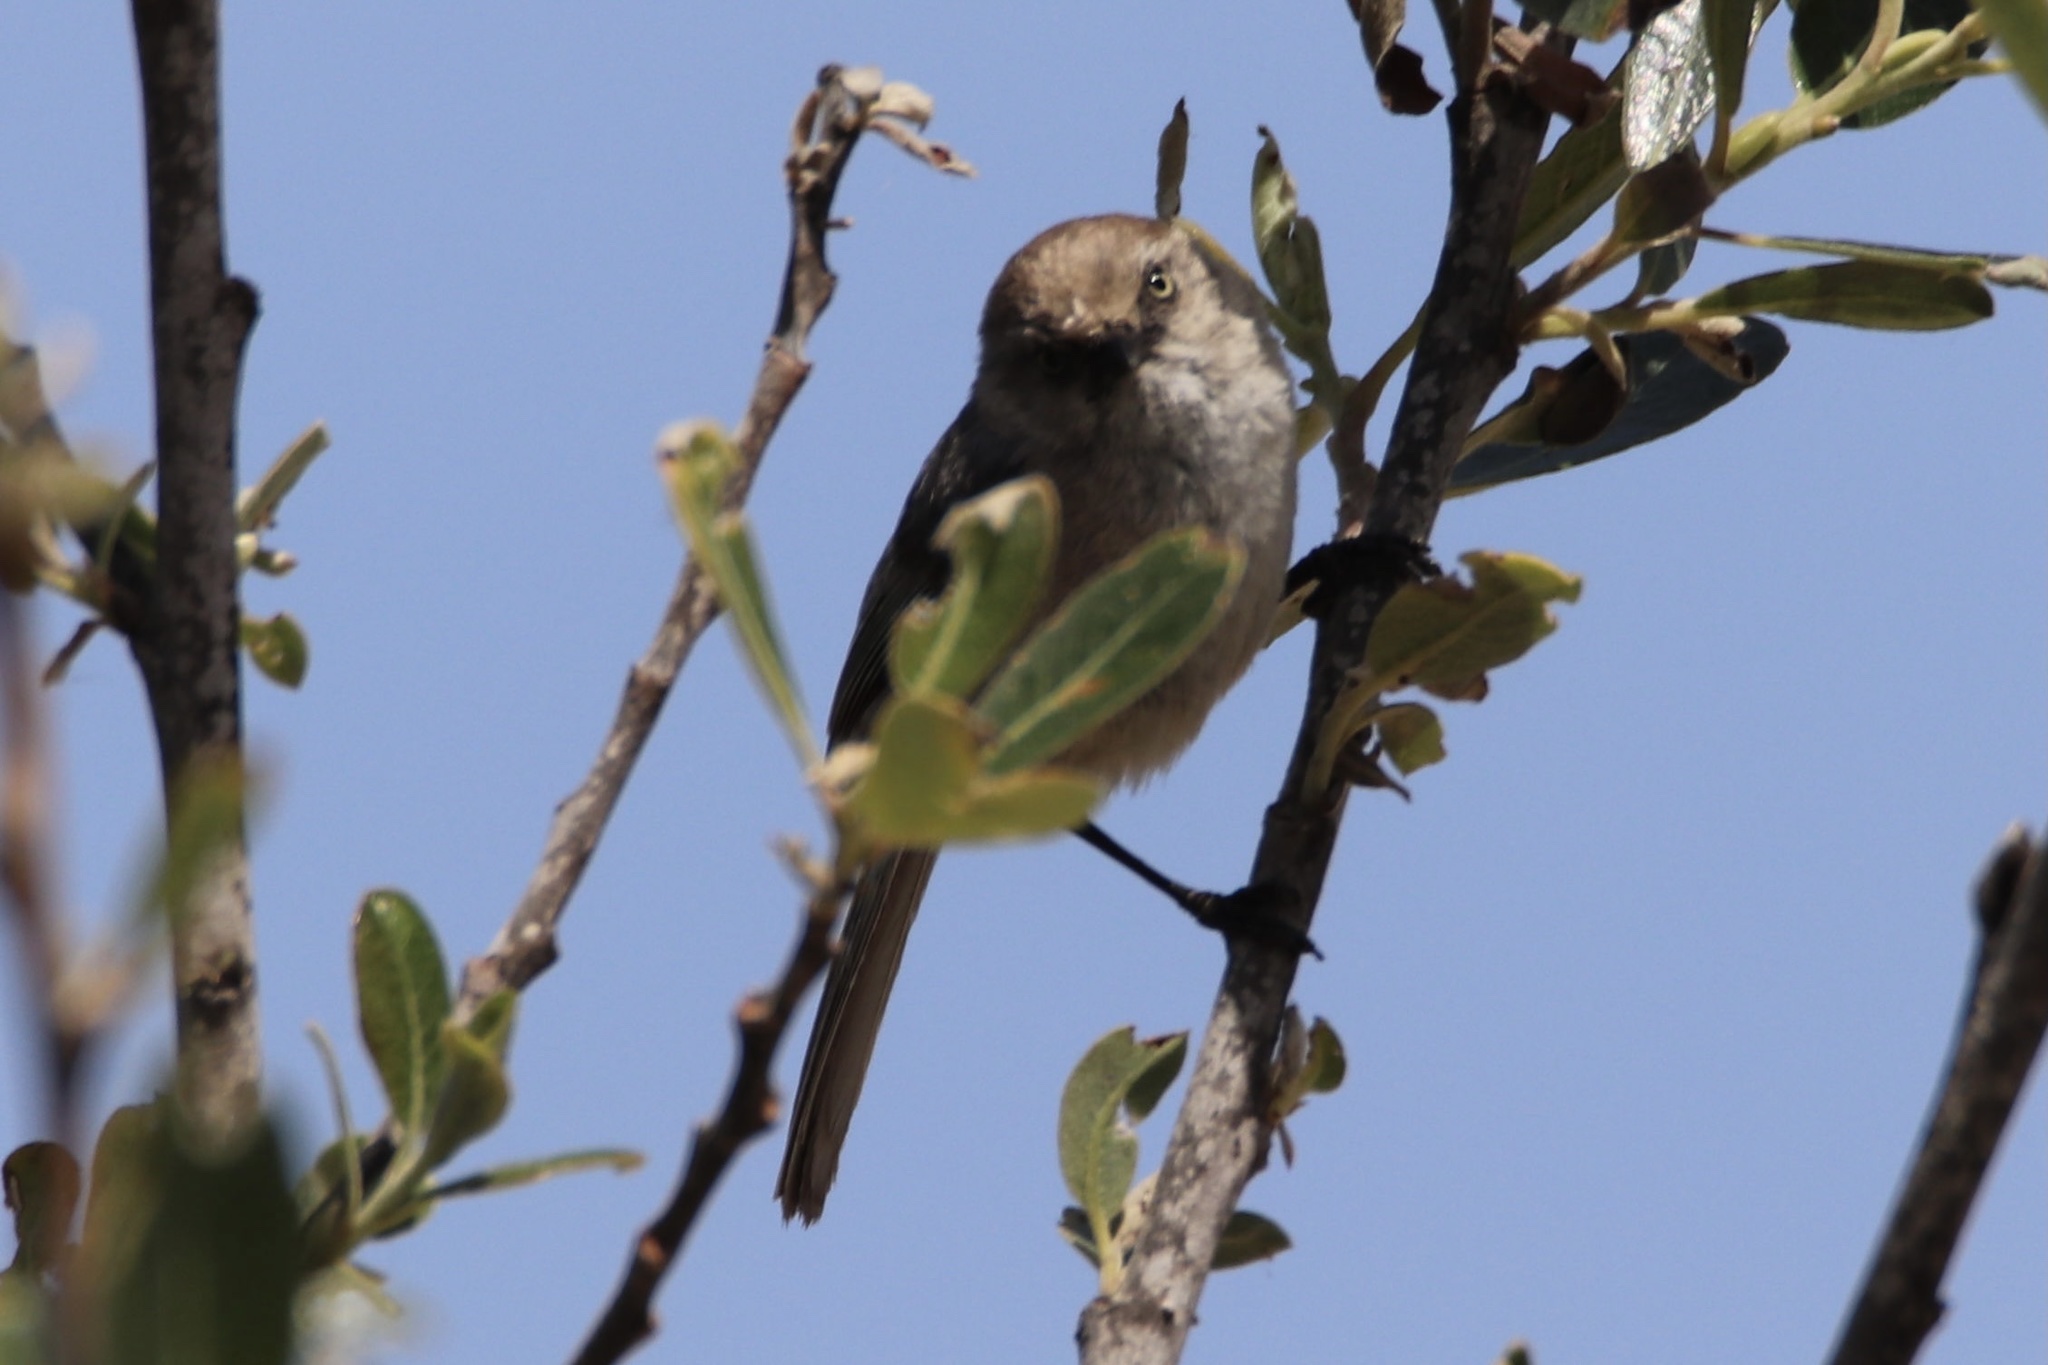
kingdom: Animalia
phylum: Chordata
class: Aves
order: Passeriformes
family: Aegithalidae
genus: Psaltriparus
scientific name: Psaltriparus minimus
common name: American bushtit
